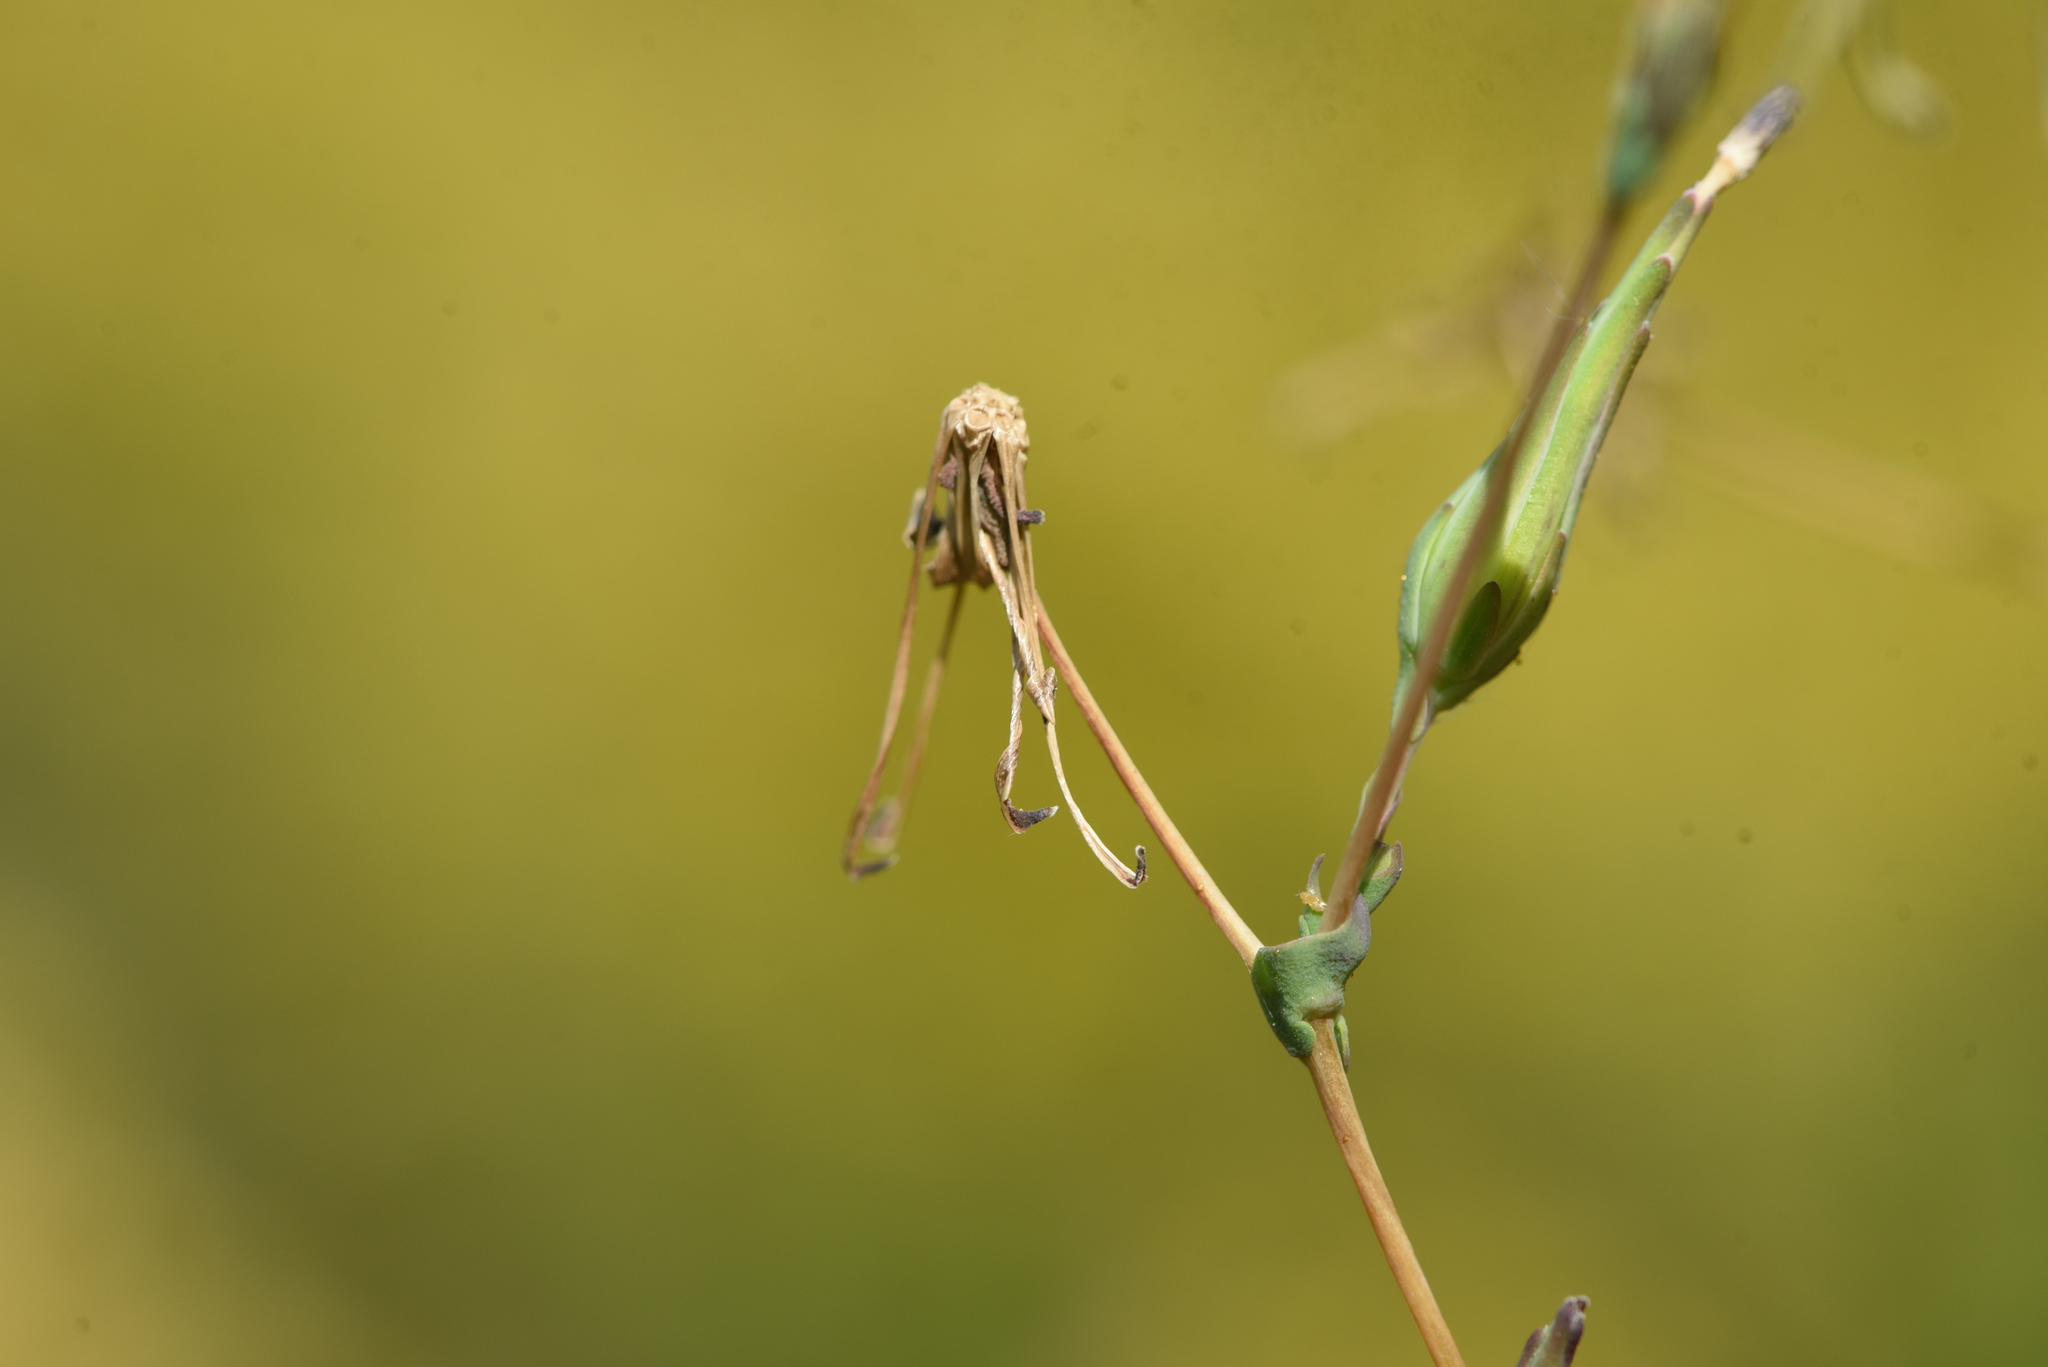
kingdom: Plantae
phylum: Tracheophyta
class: Magnoliopsida
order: Asterales
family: Asteraceae
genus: Lactuca
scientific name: Lactuca serriola
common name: Prickly lettuce
